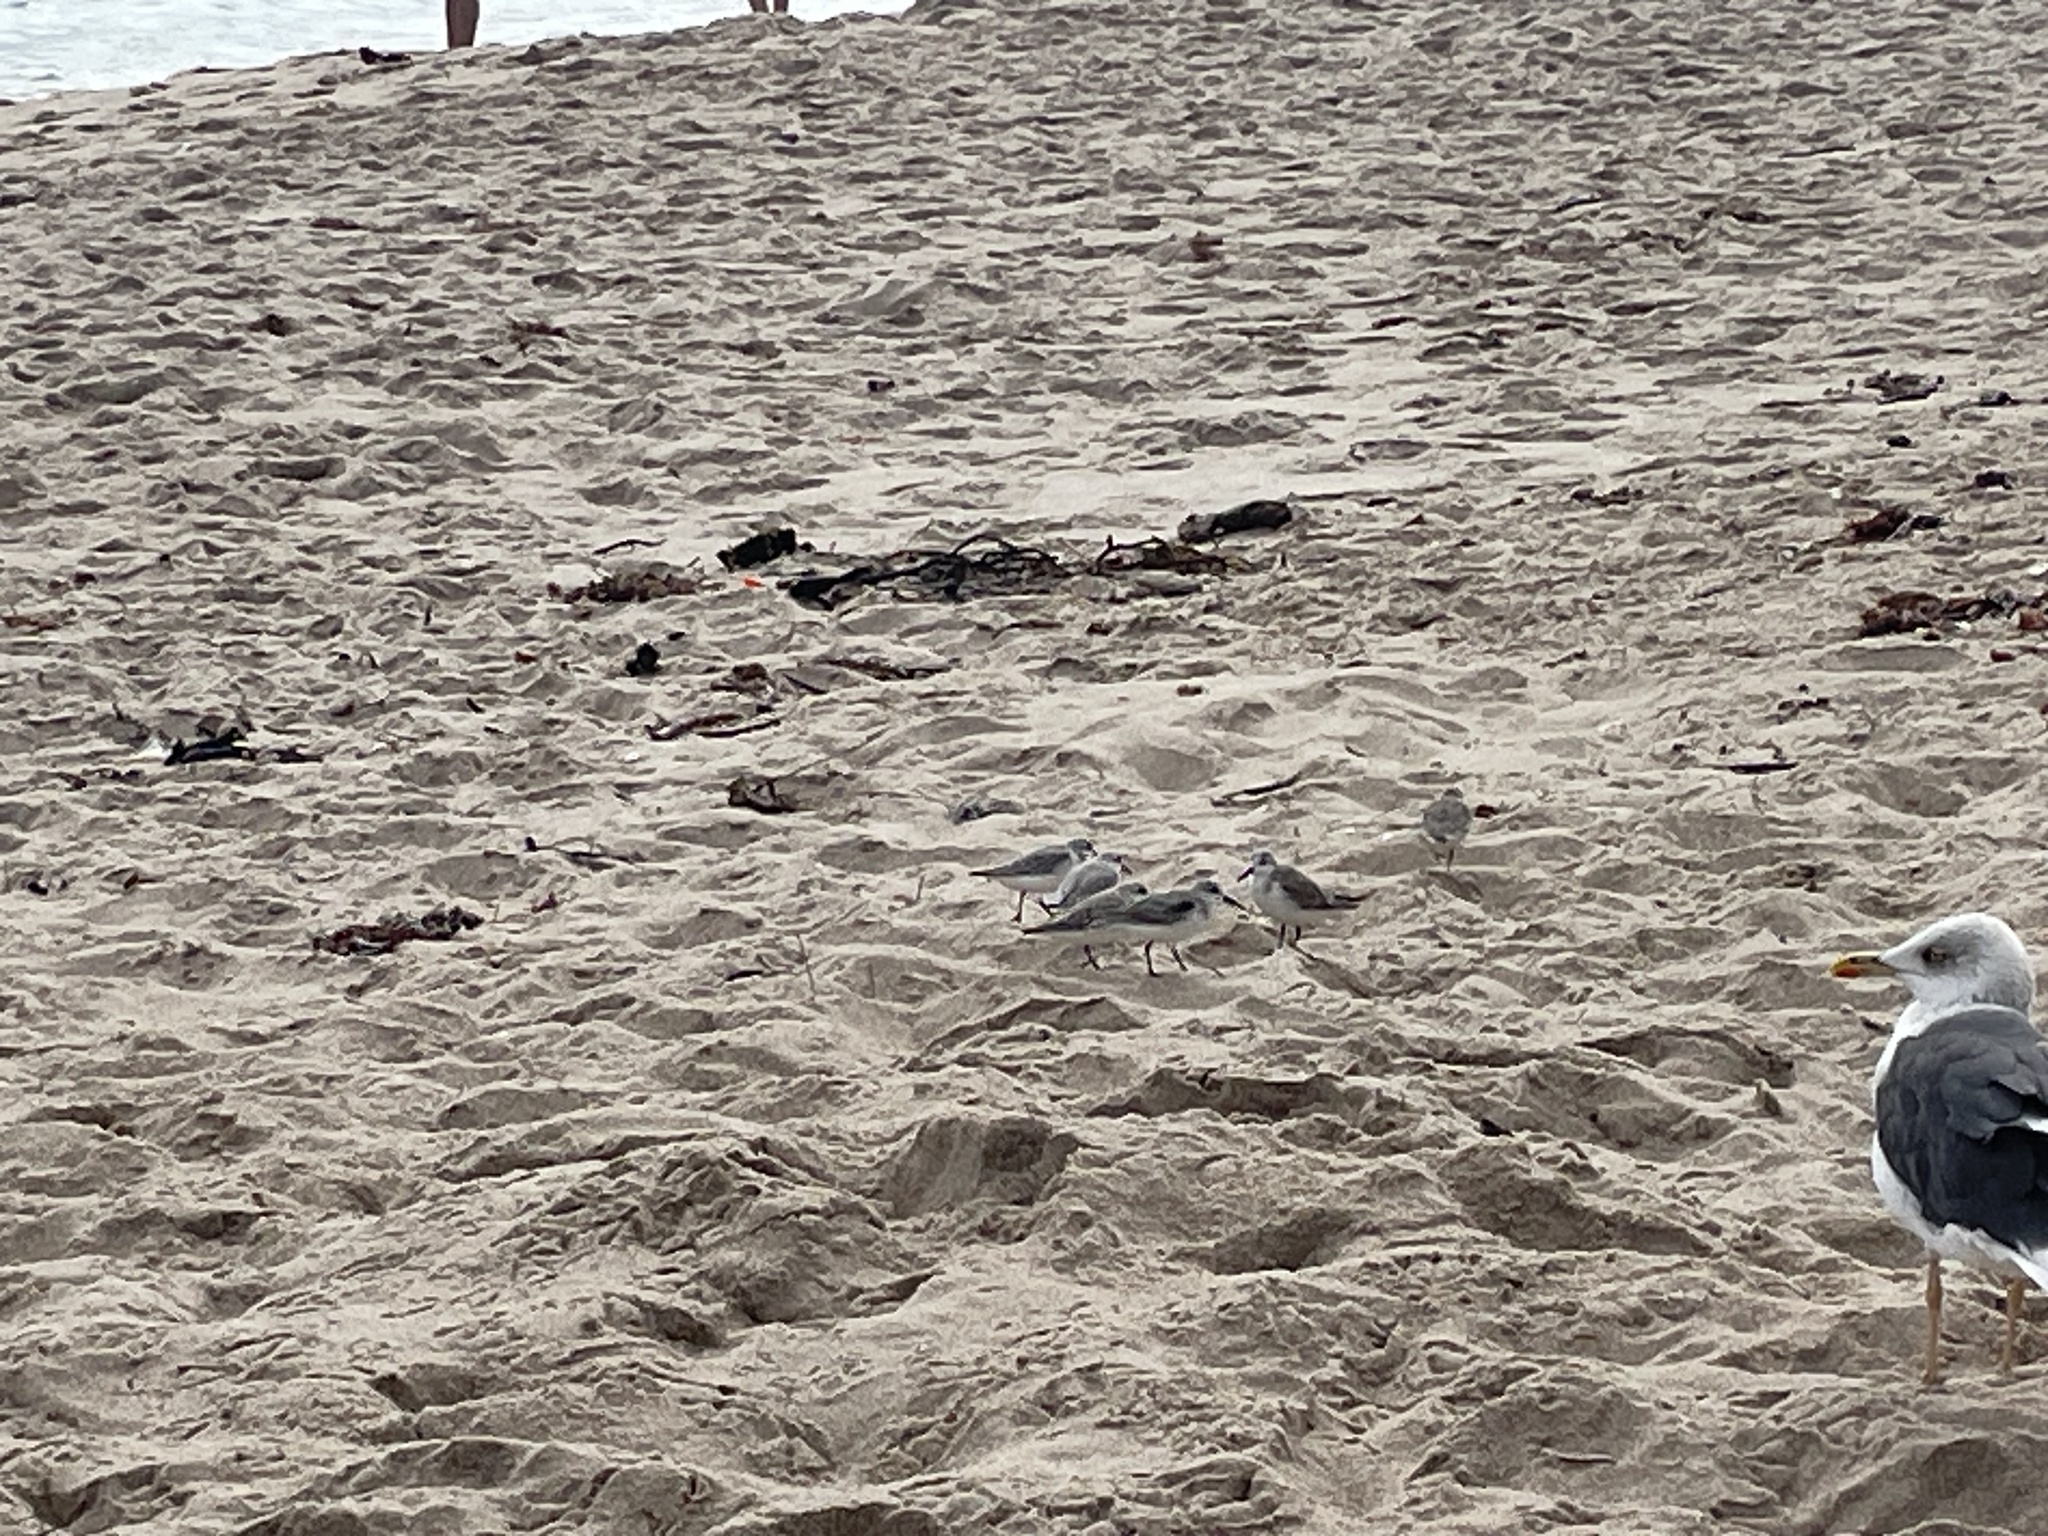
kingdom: Animalia
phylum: Chordata
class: Aves
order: Charadriiformes
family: Scolopacidae
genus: Calidris
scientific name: Calidris alba
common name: Sanderling
